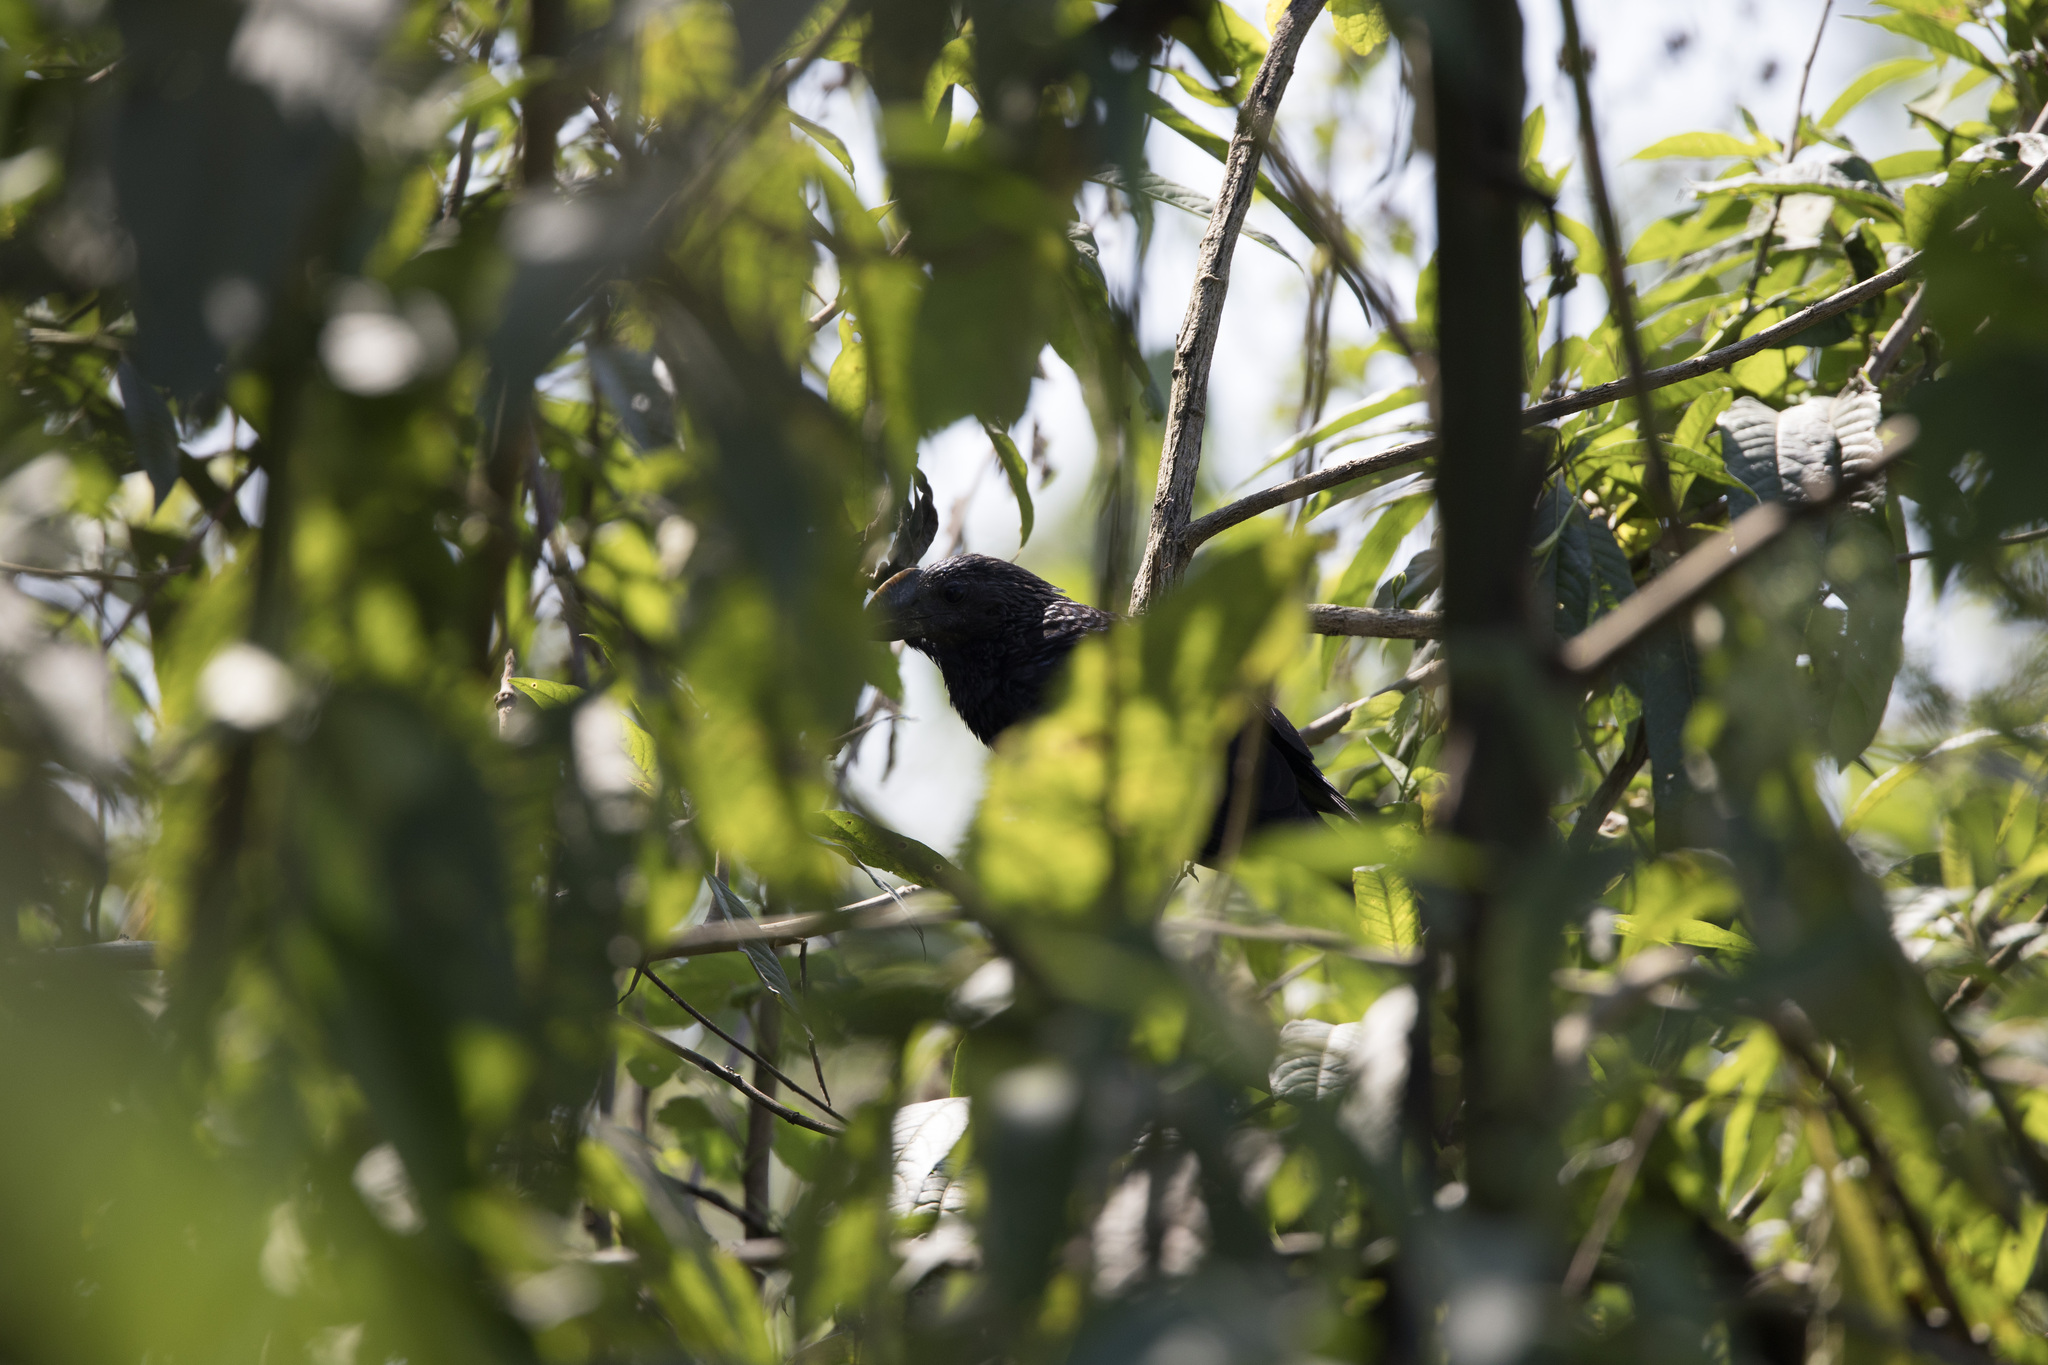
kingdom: Animalia
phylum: Chordata
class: Aves
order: Cuculiformes
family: Cuculidae
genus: Crotophaga
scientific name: Crotophaga ani
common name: Smooth-billed ani
